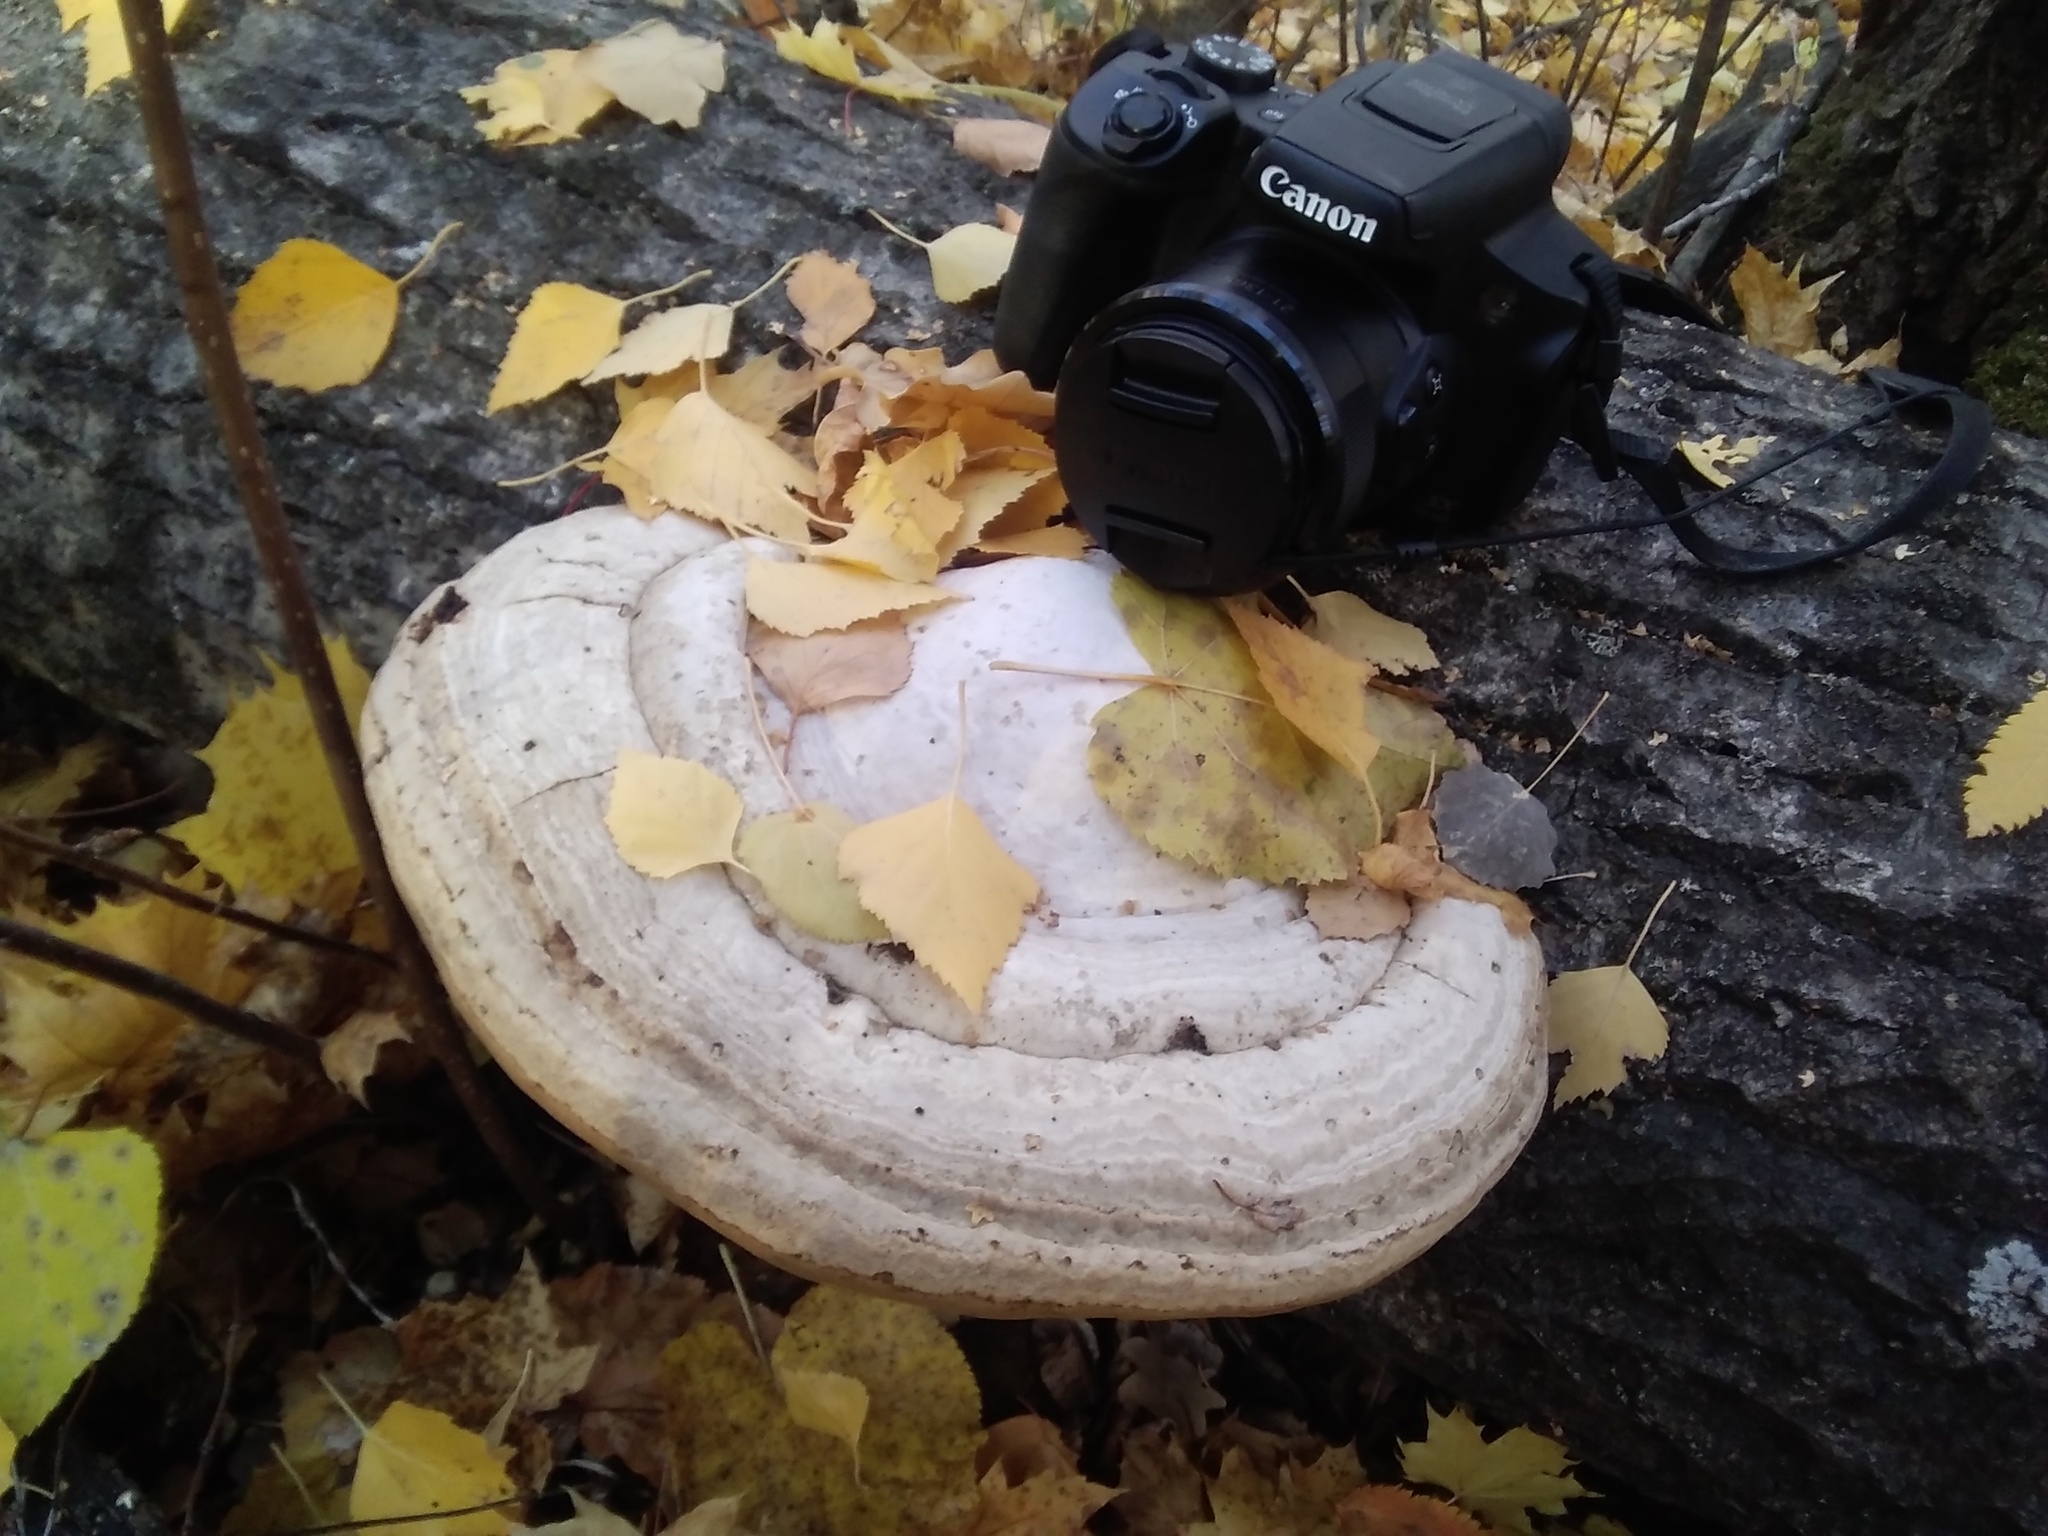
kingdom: Fungi
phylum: Basidiomycota
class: Agaricomycetes
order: Polyporales
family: Polyporaceae
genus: Fomes
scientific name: Fomes fomentarius
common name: Hoof fungus
